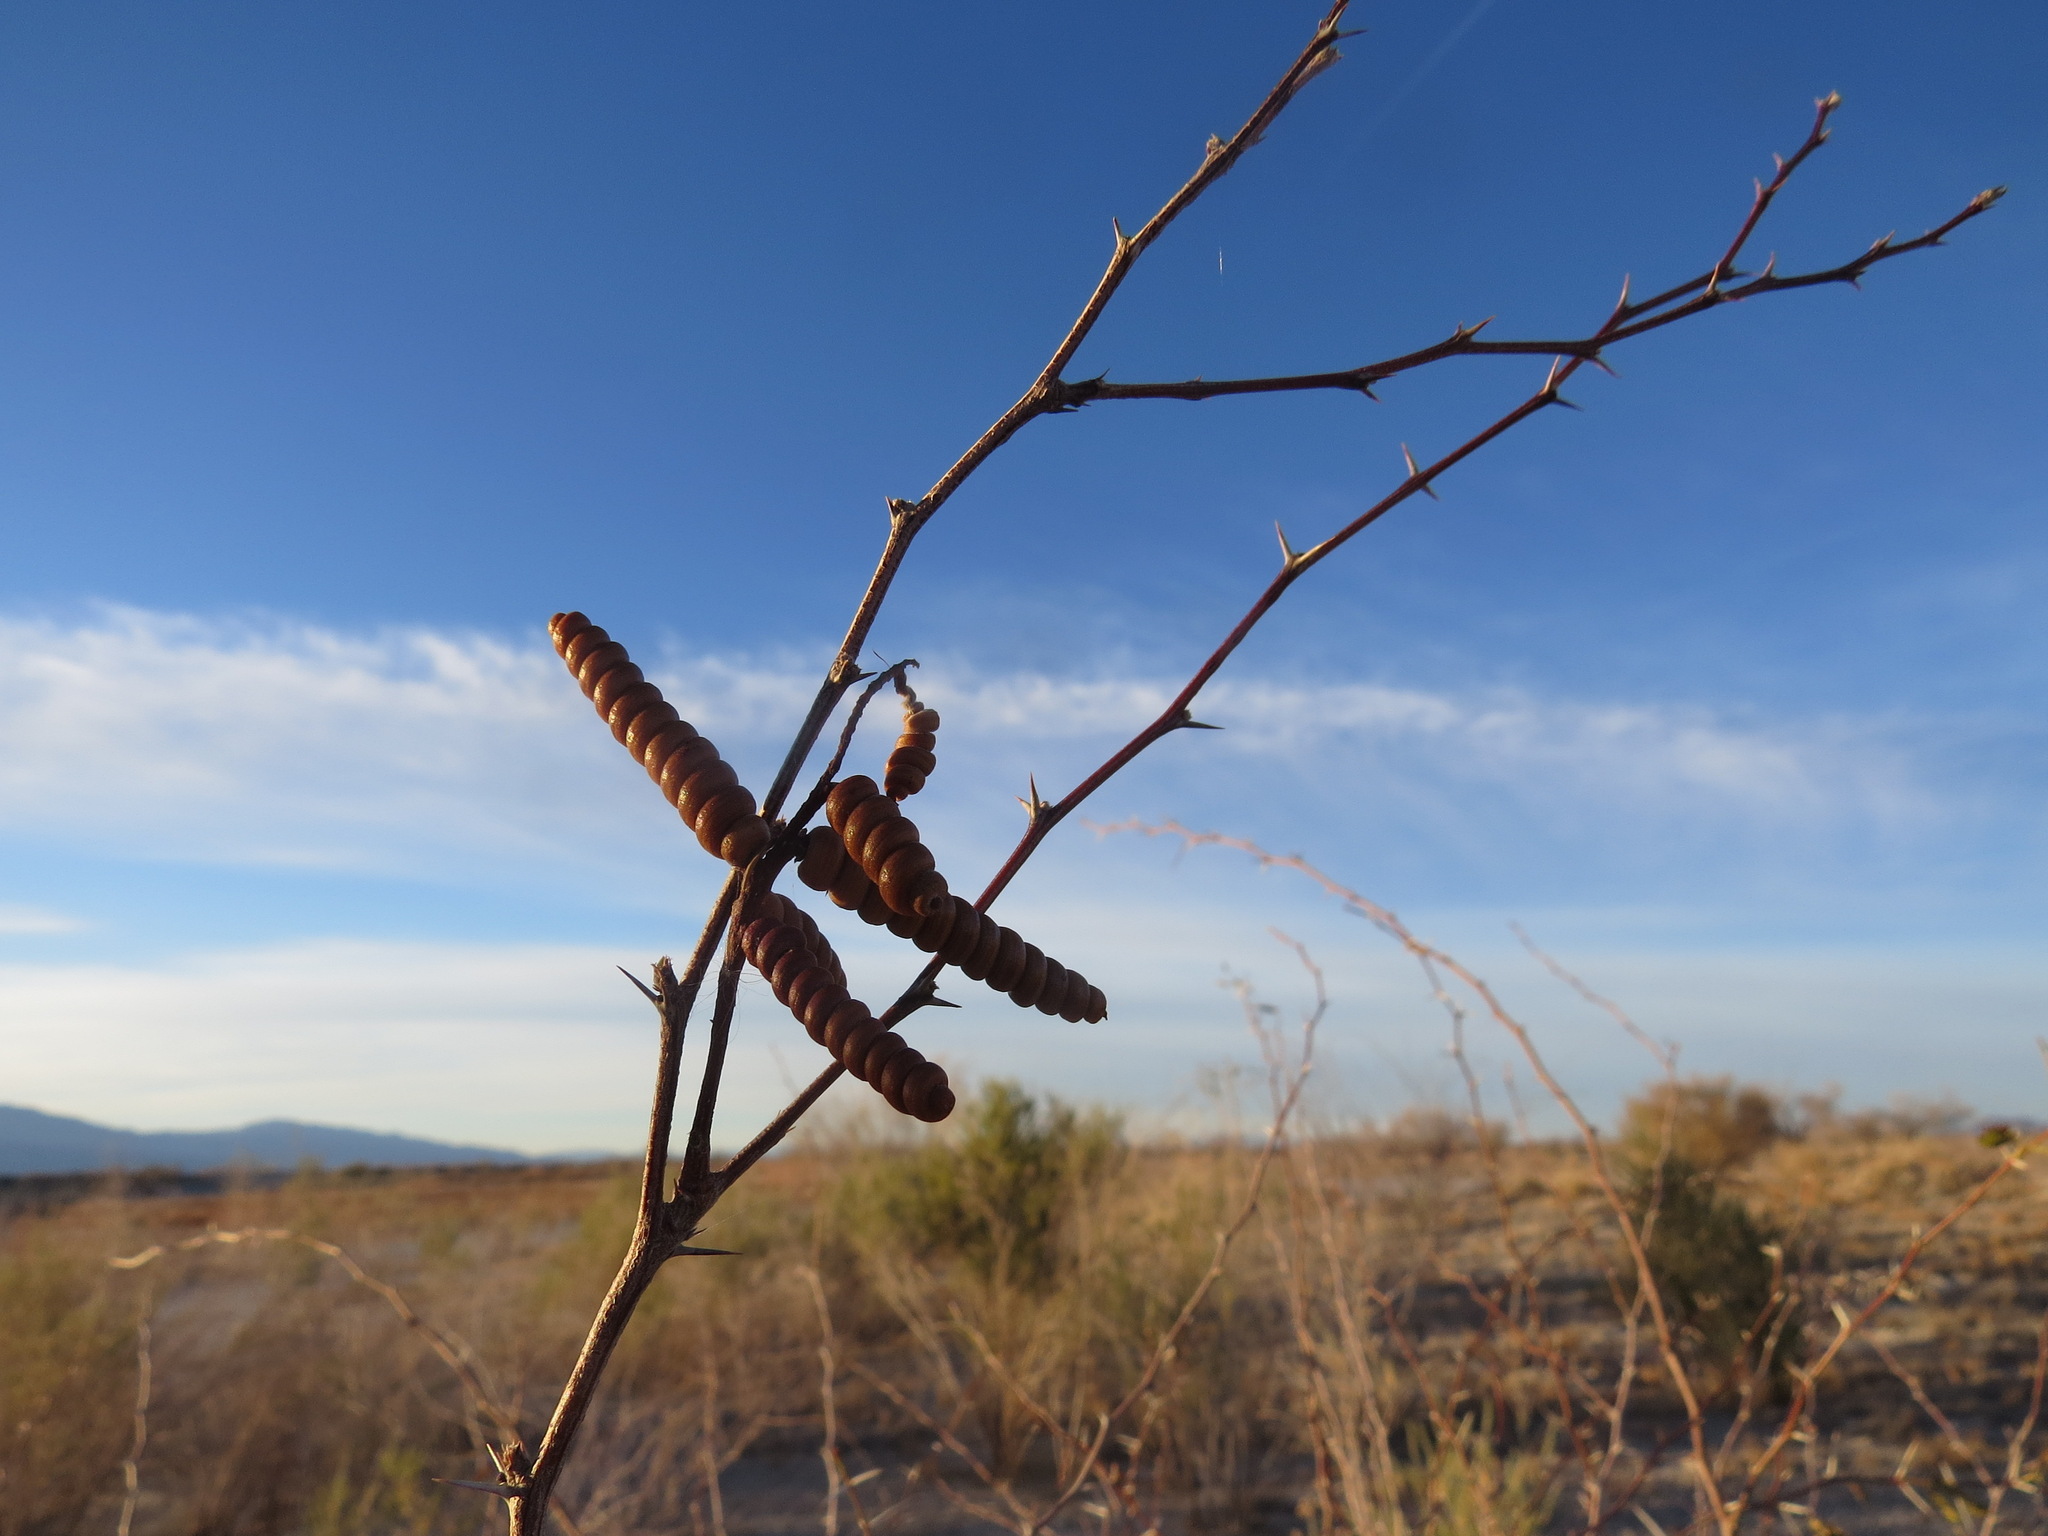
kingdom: Plantae
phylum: Tracheophyta
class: Magnoliopsida
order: Fabales
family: Fabaceae
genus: Prosopis
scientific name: Prosopis pubescens
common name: Screw-bean
